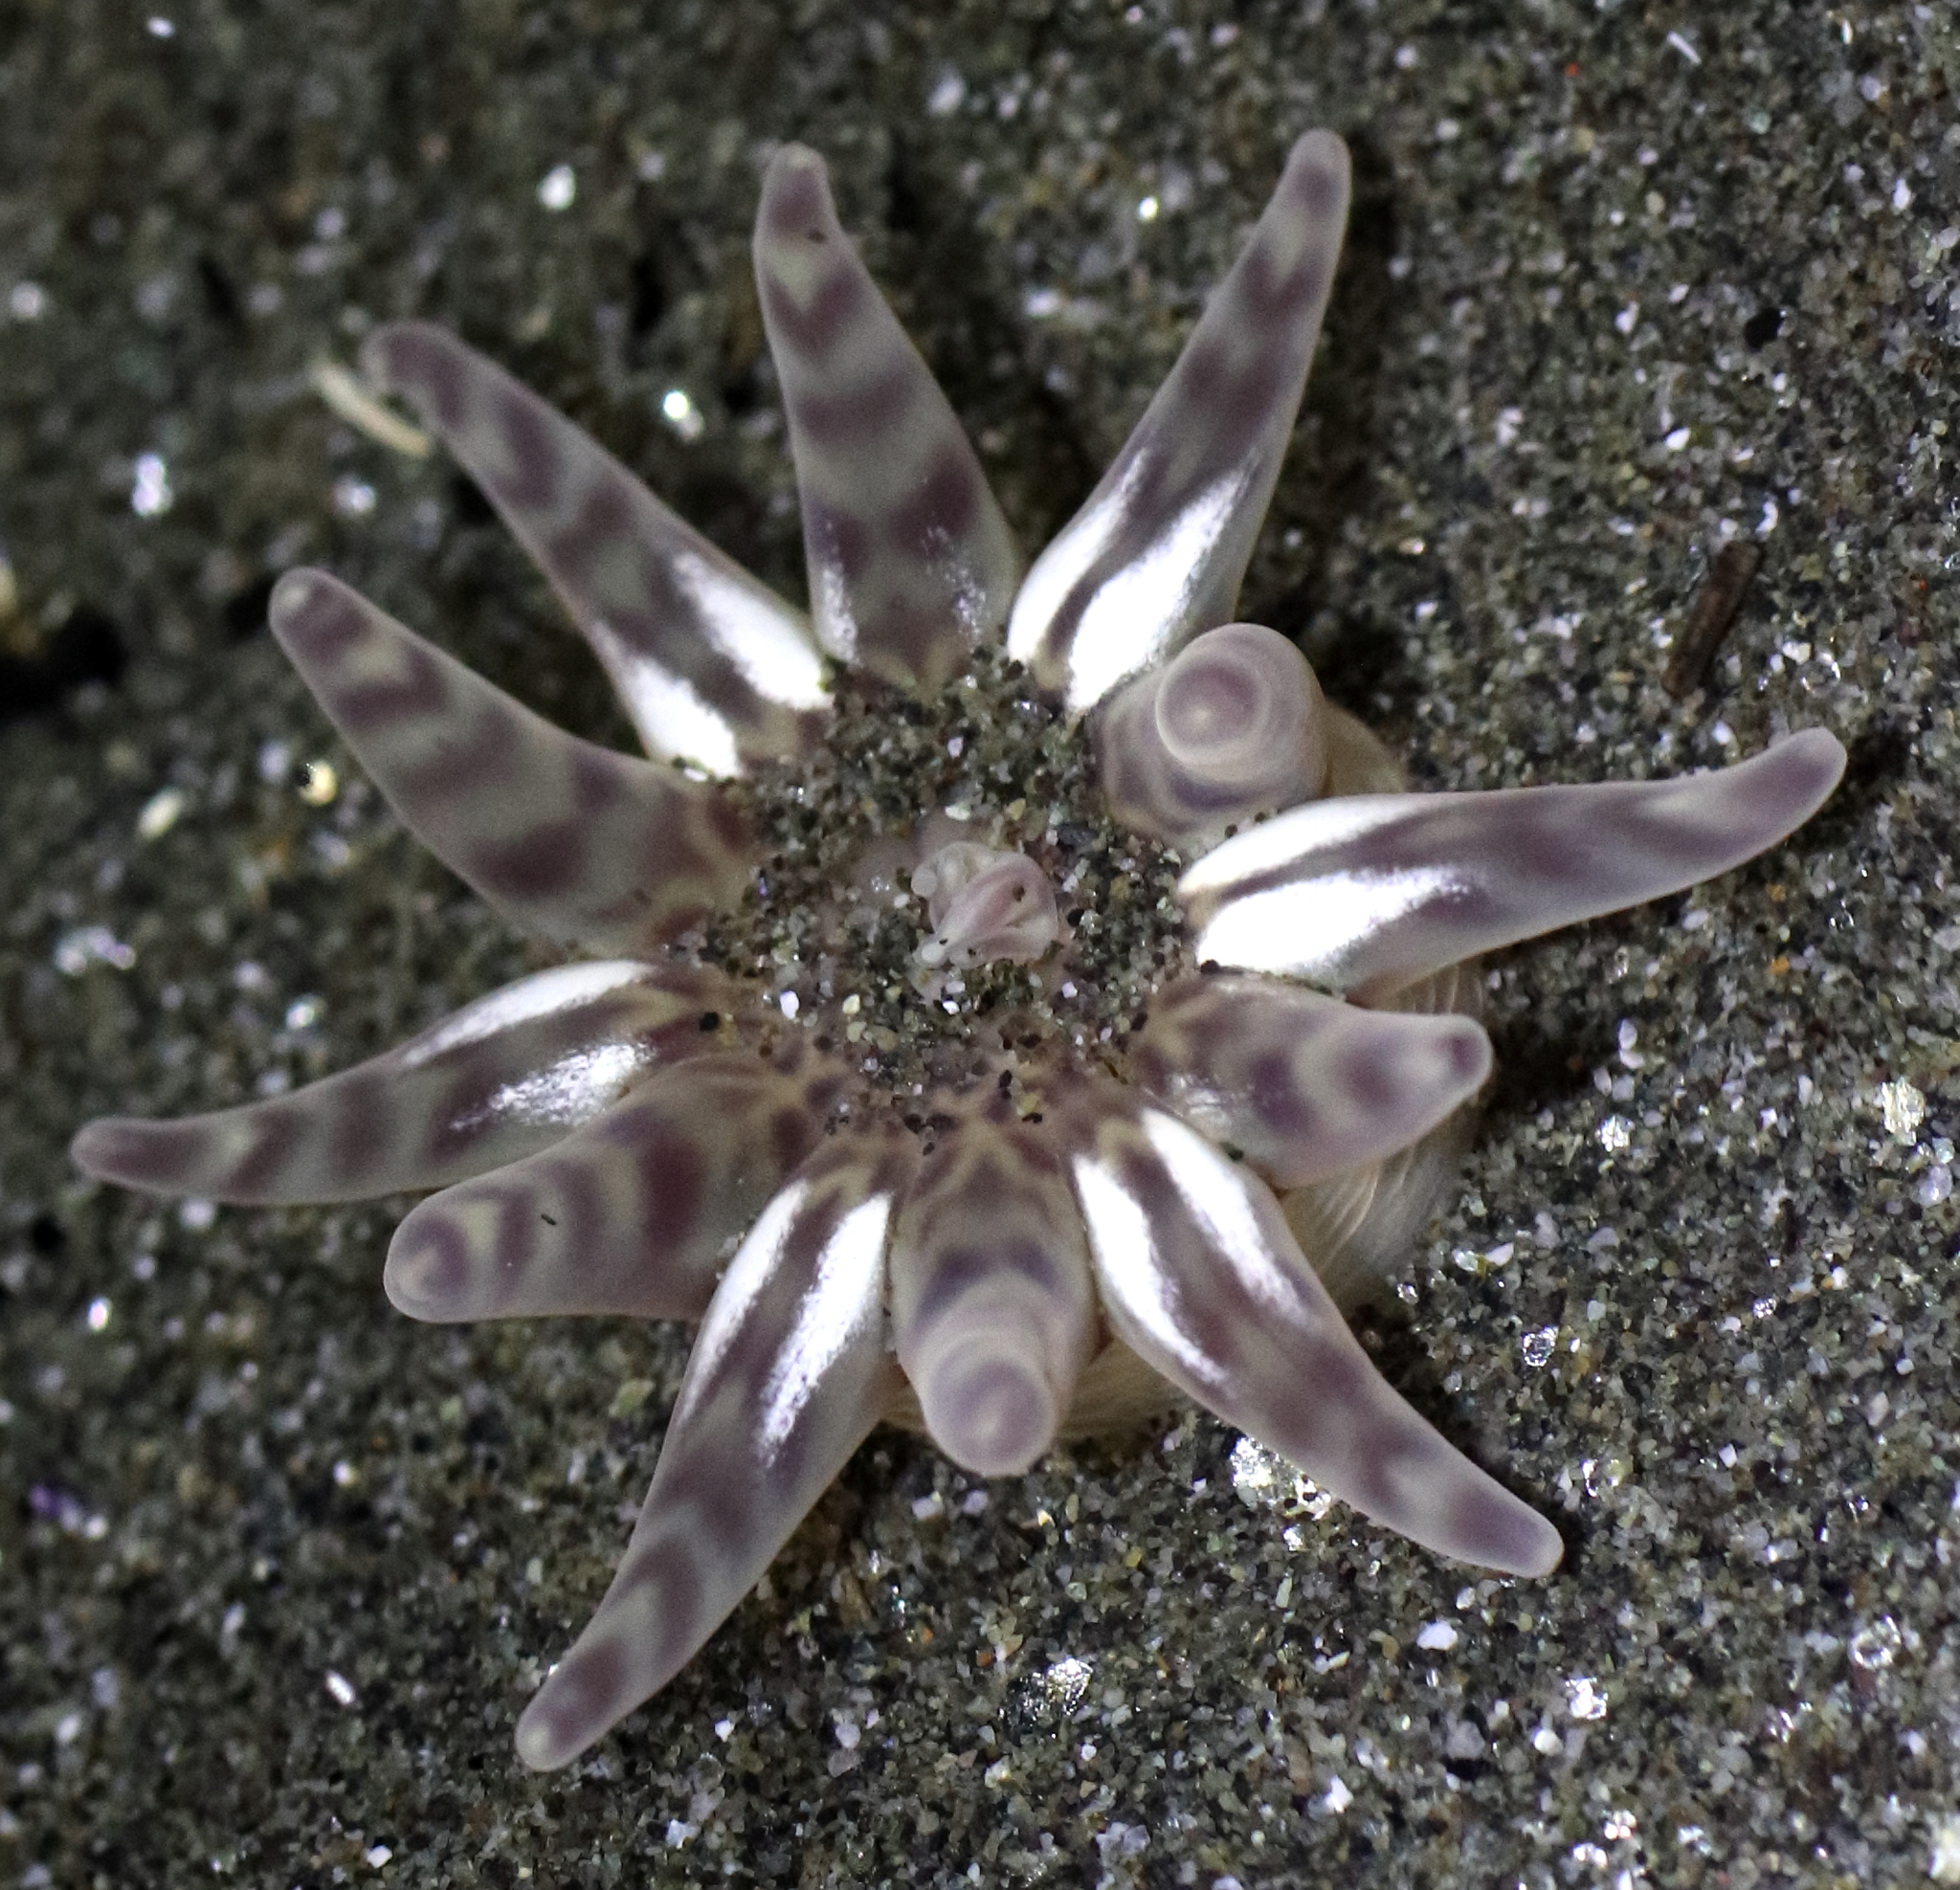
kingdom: Animalia
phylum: Cnidaria
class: Anthozoa
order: Actiniaria
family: Peachiidae
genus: Peachia
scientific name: Peachia quinquecapitata
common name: Twelve-tentacled parasitic anemone
